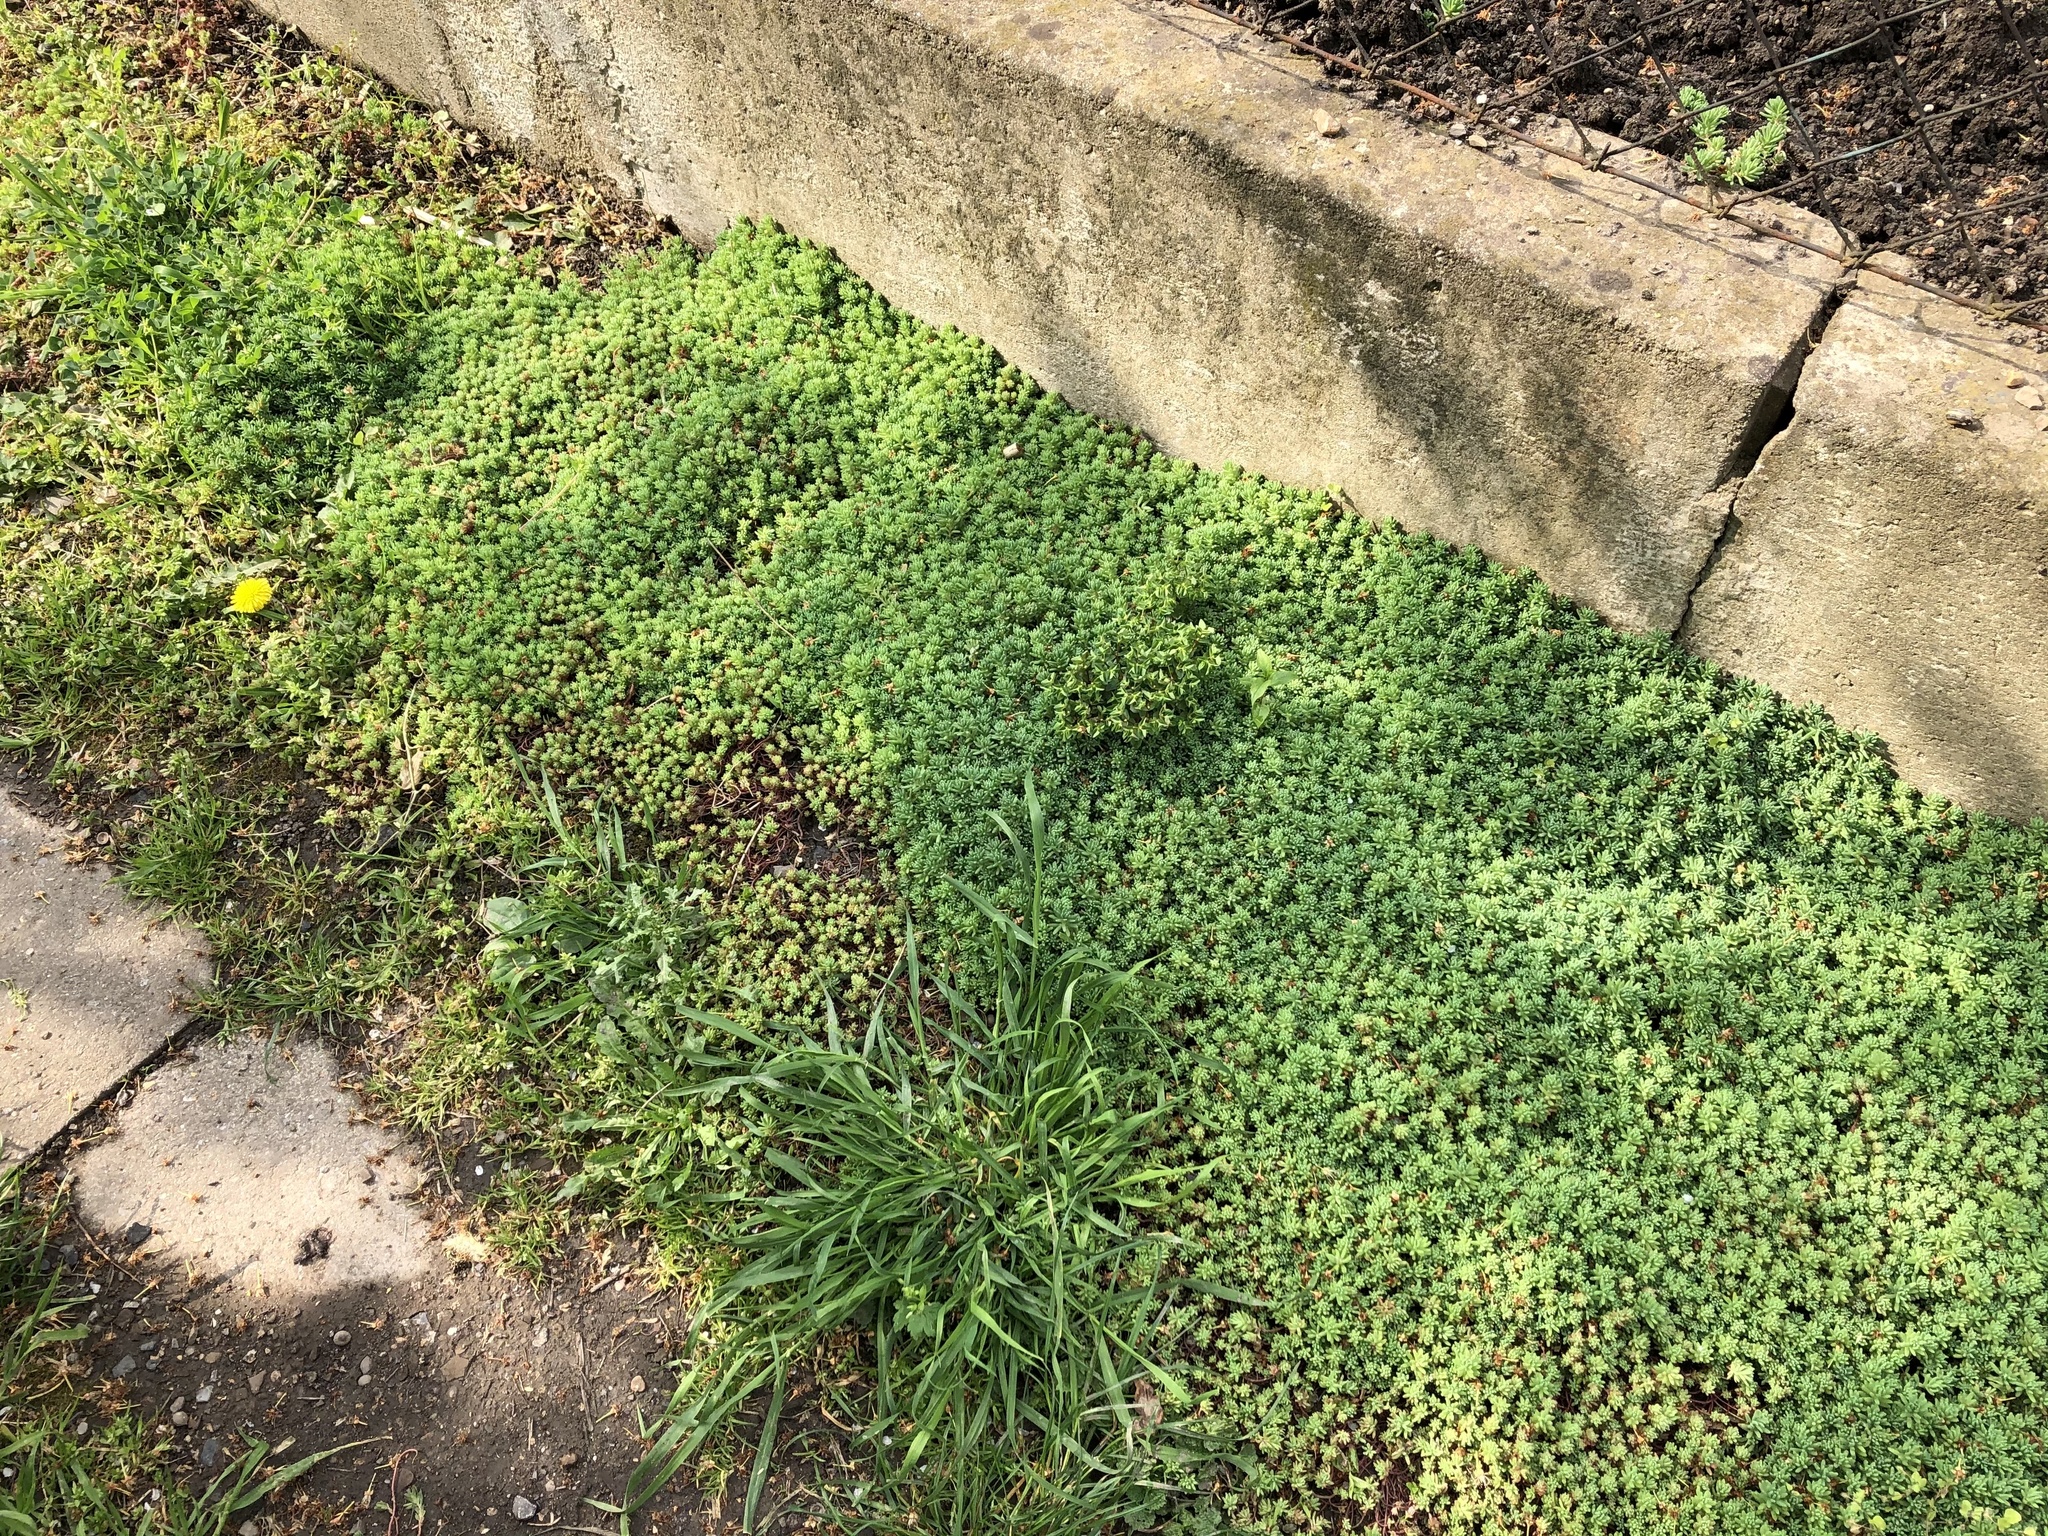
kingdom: Plantae
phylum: Tracheophyta
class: Magnoliopsida
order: Saxifragales
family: Crassulaceae
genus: Sedum
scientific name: Sedum pallidum
